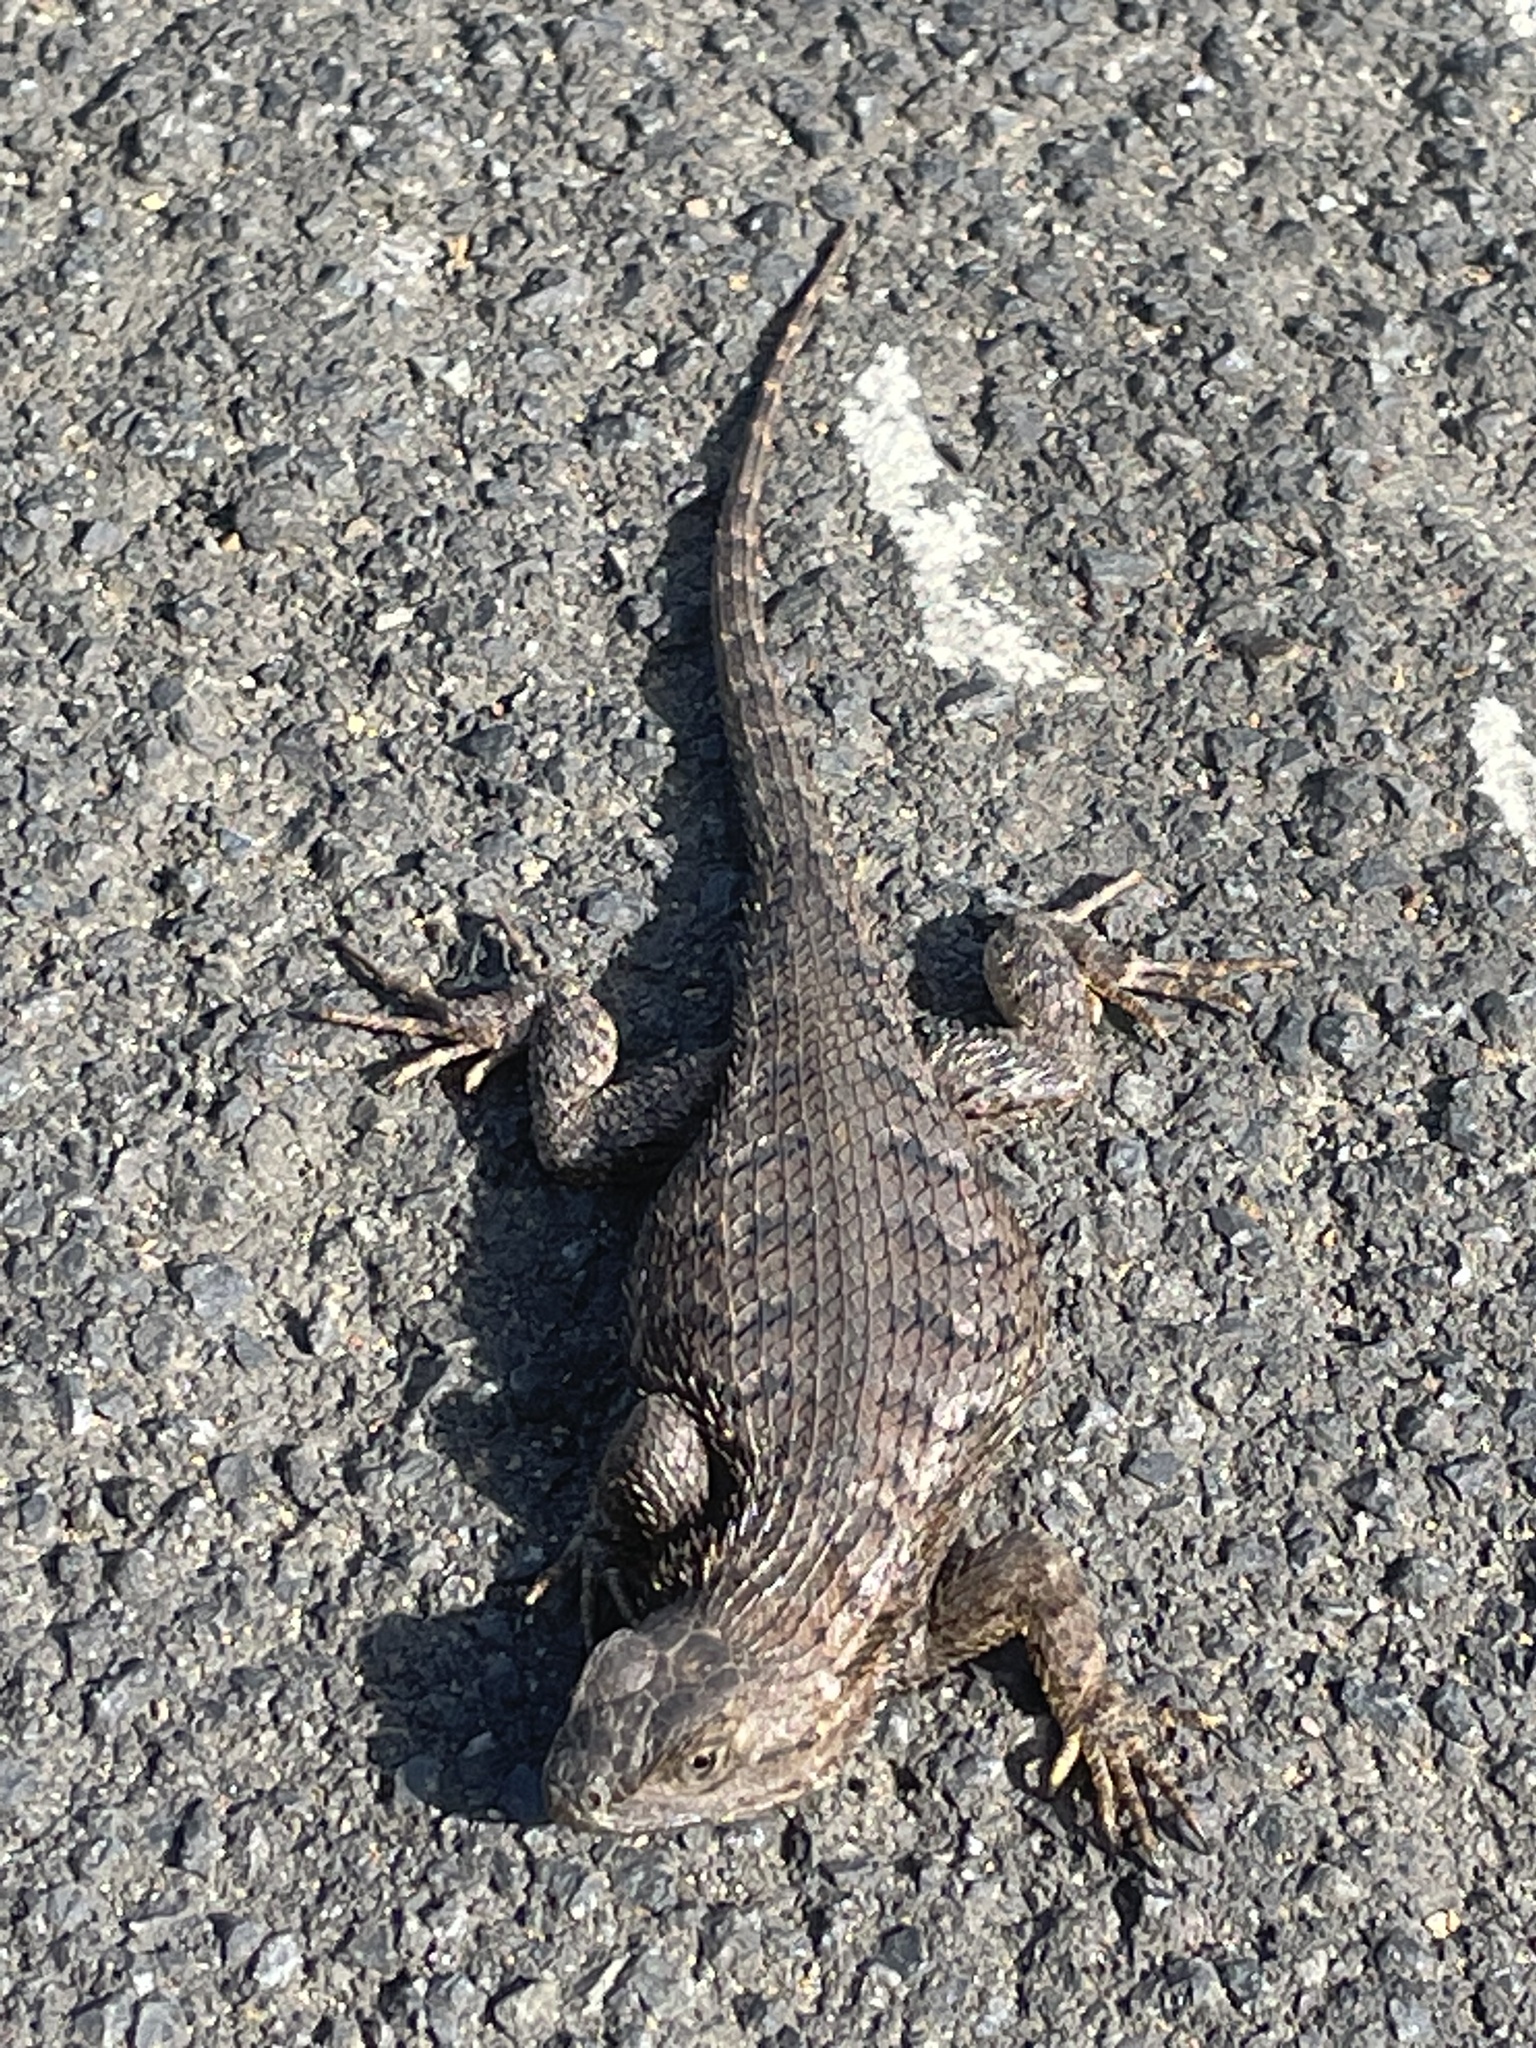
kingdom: Animalia
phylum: Chordata
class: Squamata
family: Phrynosomatidae
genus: Sceloporus
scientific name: Sceloporus occidentalis
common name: Western fence lizard
